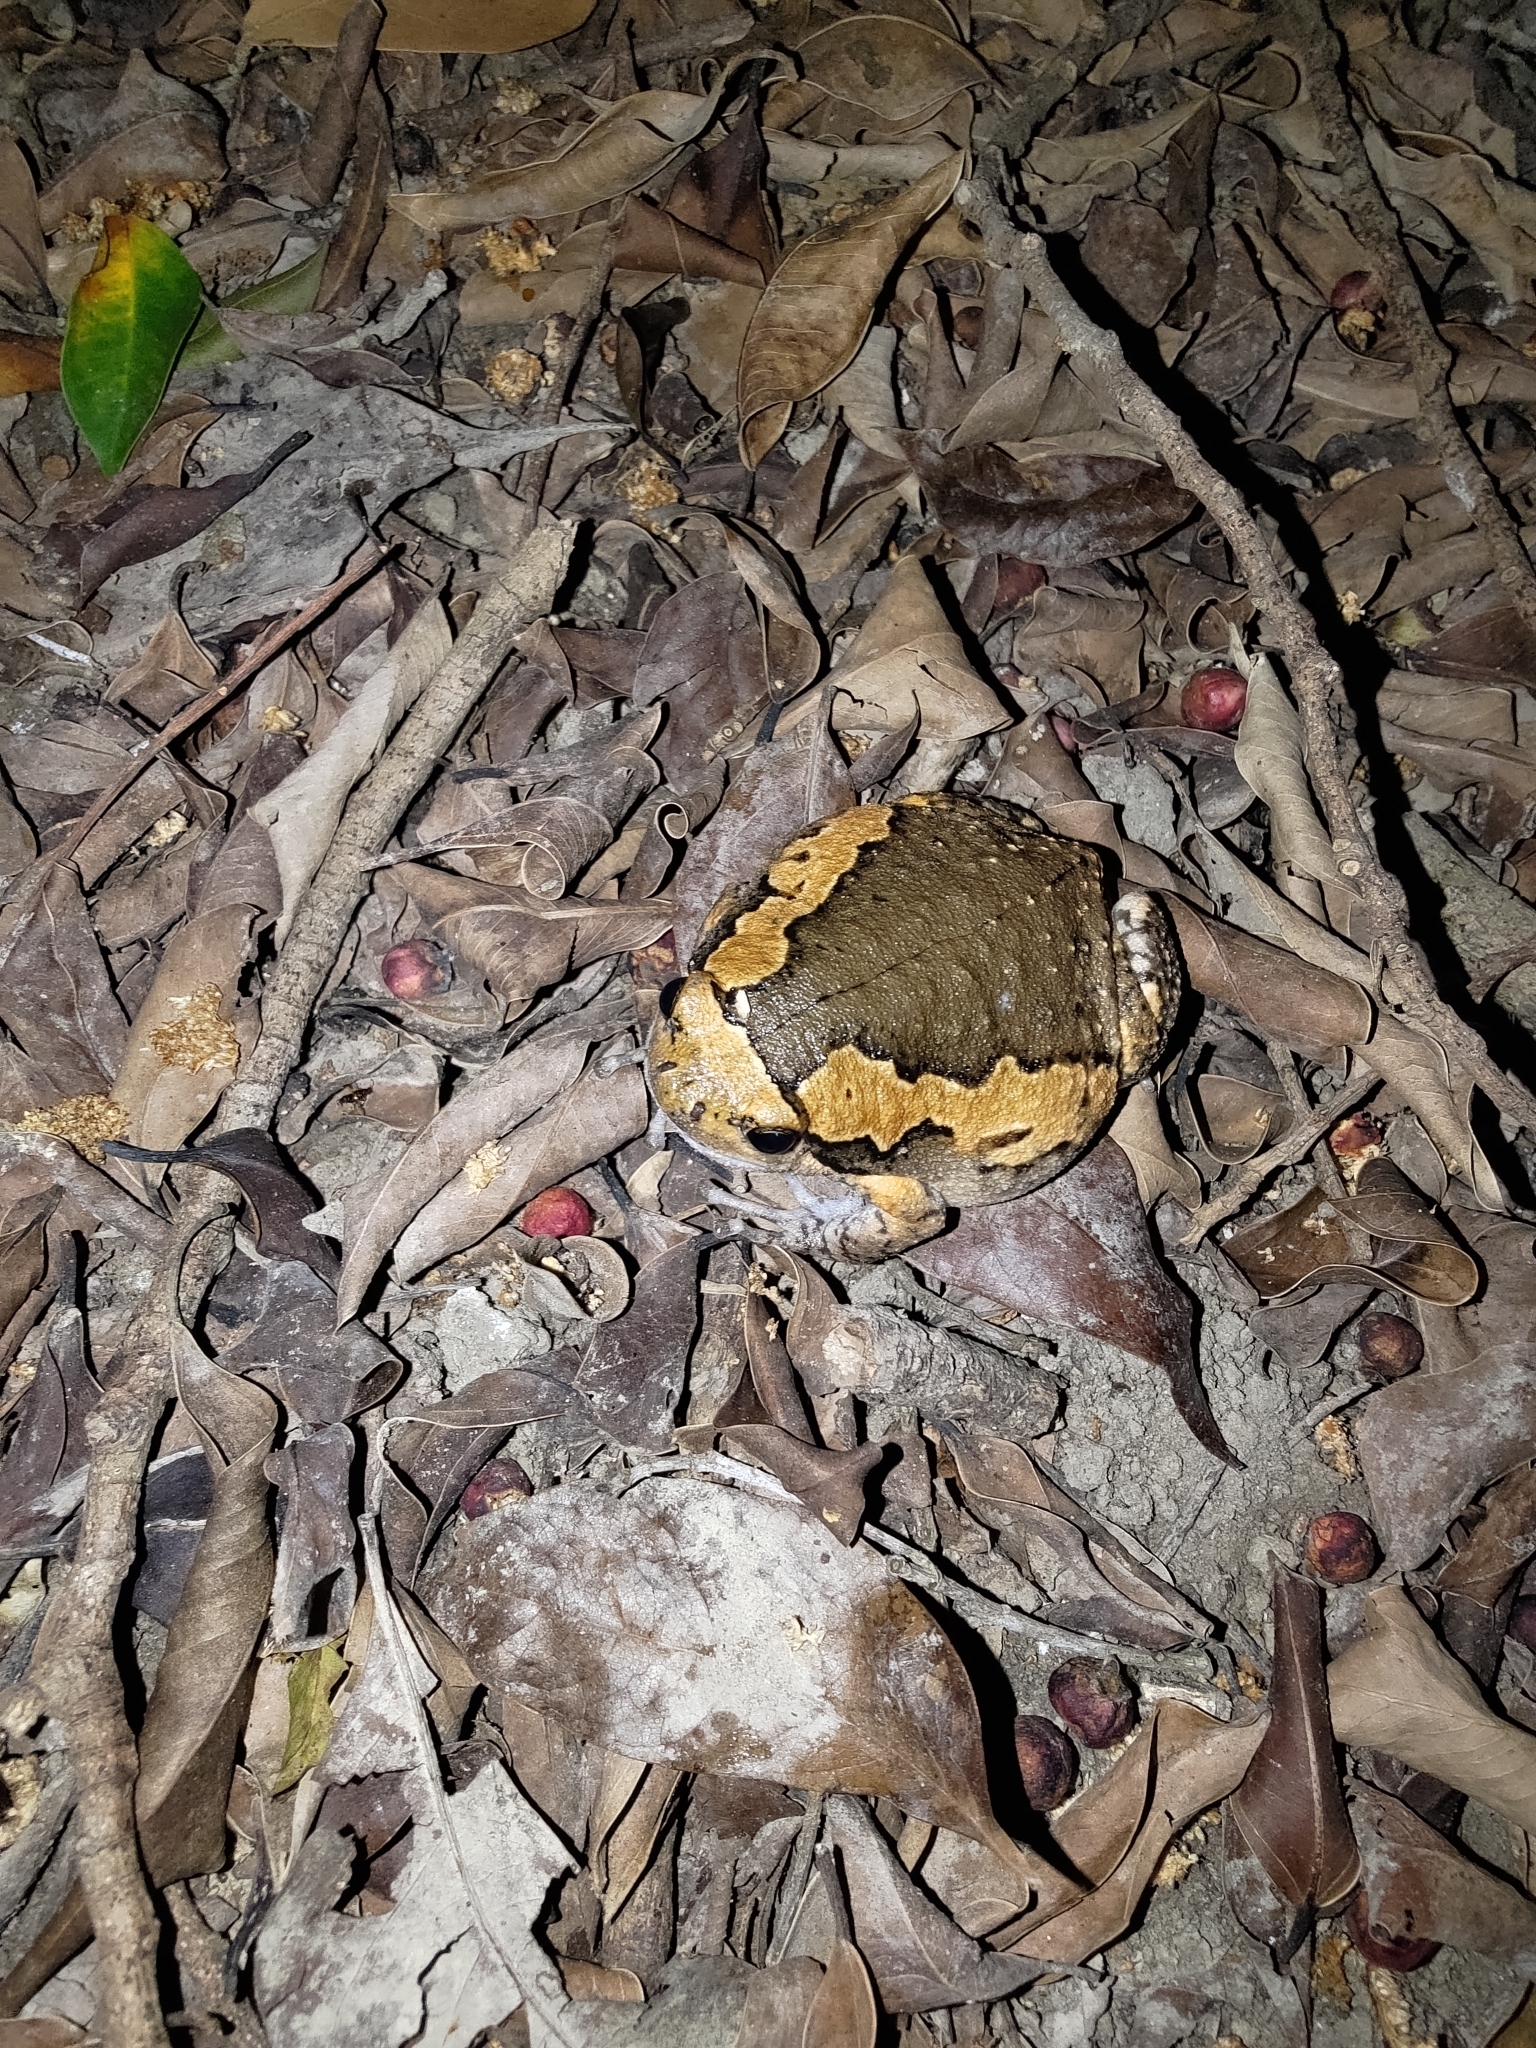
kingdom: Animalia
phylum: Chordata
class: Amphibia
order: Anura
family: Microhylidae
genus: Kaloula
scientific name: Kaloula pulchra
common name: Common,banded bullfrog
